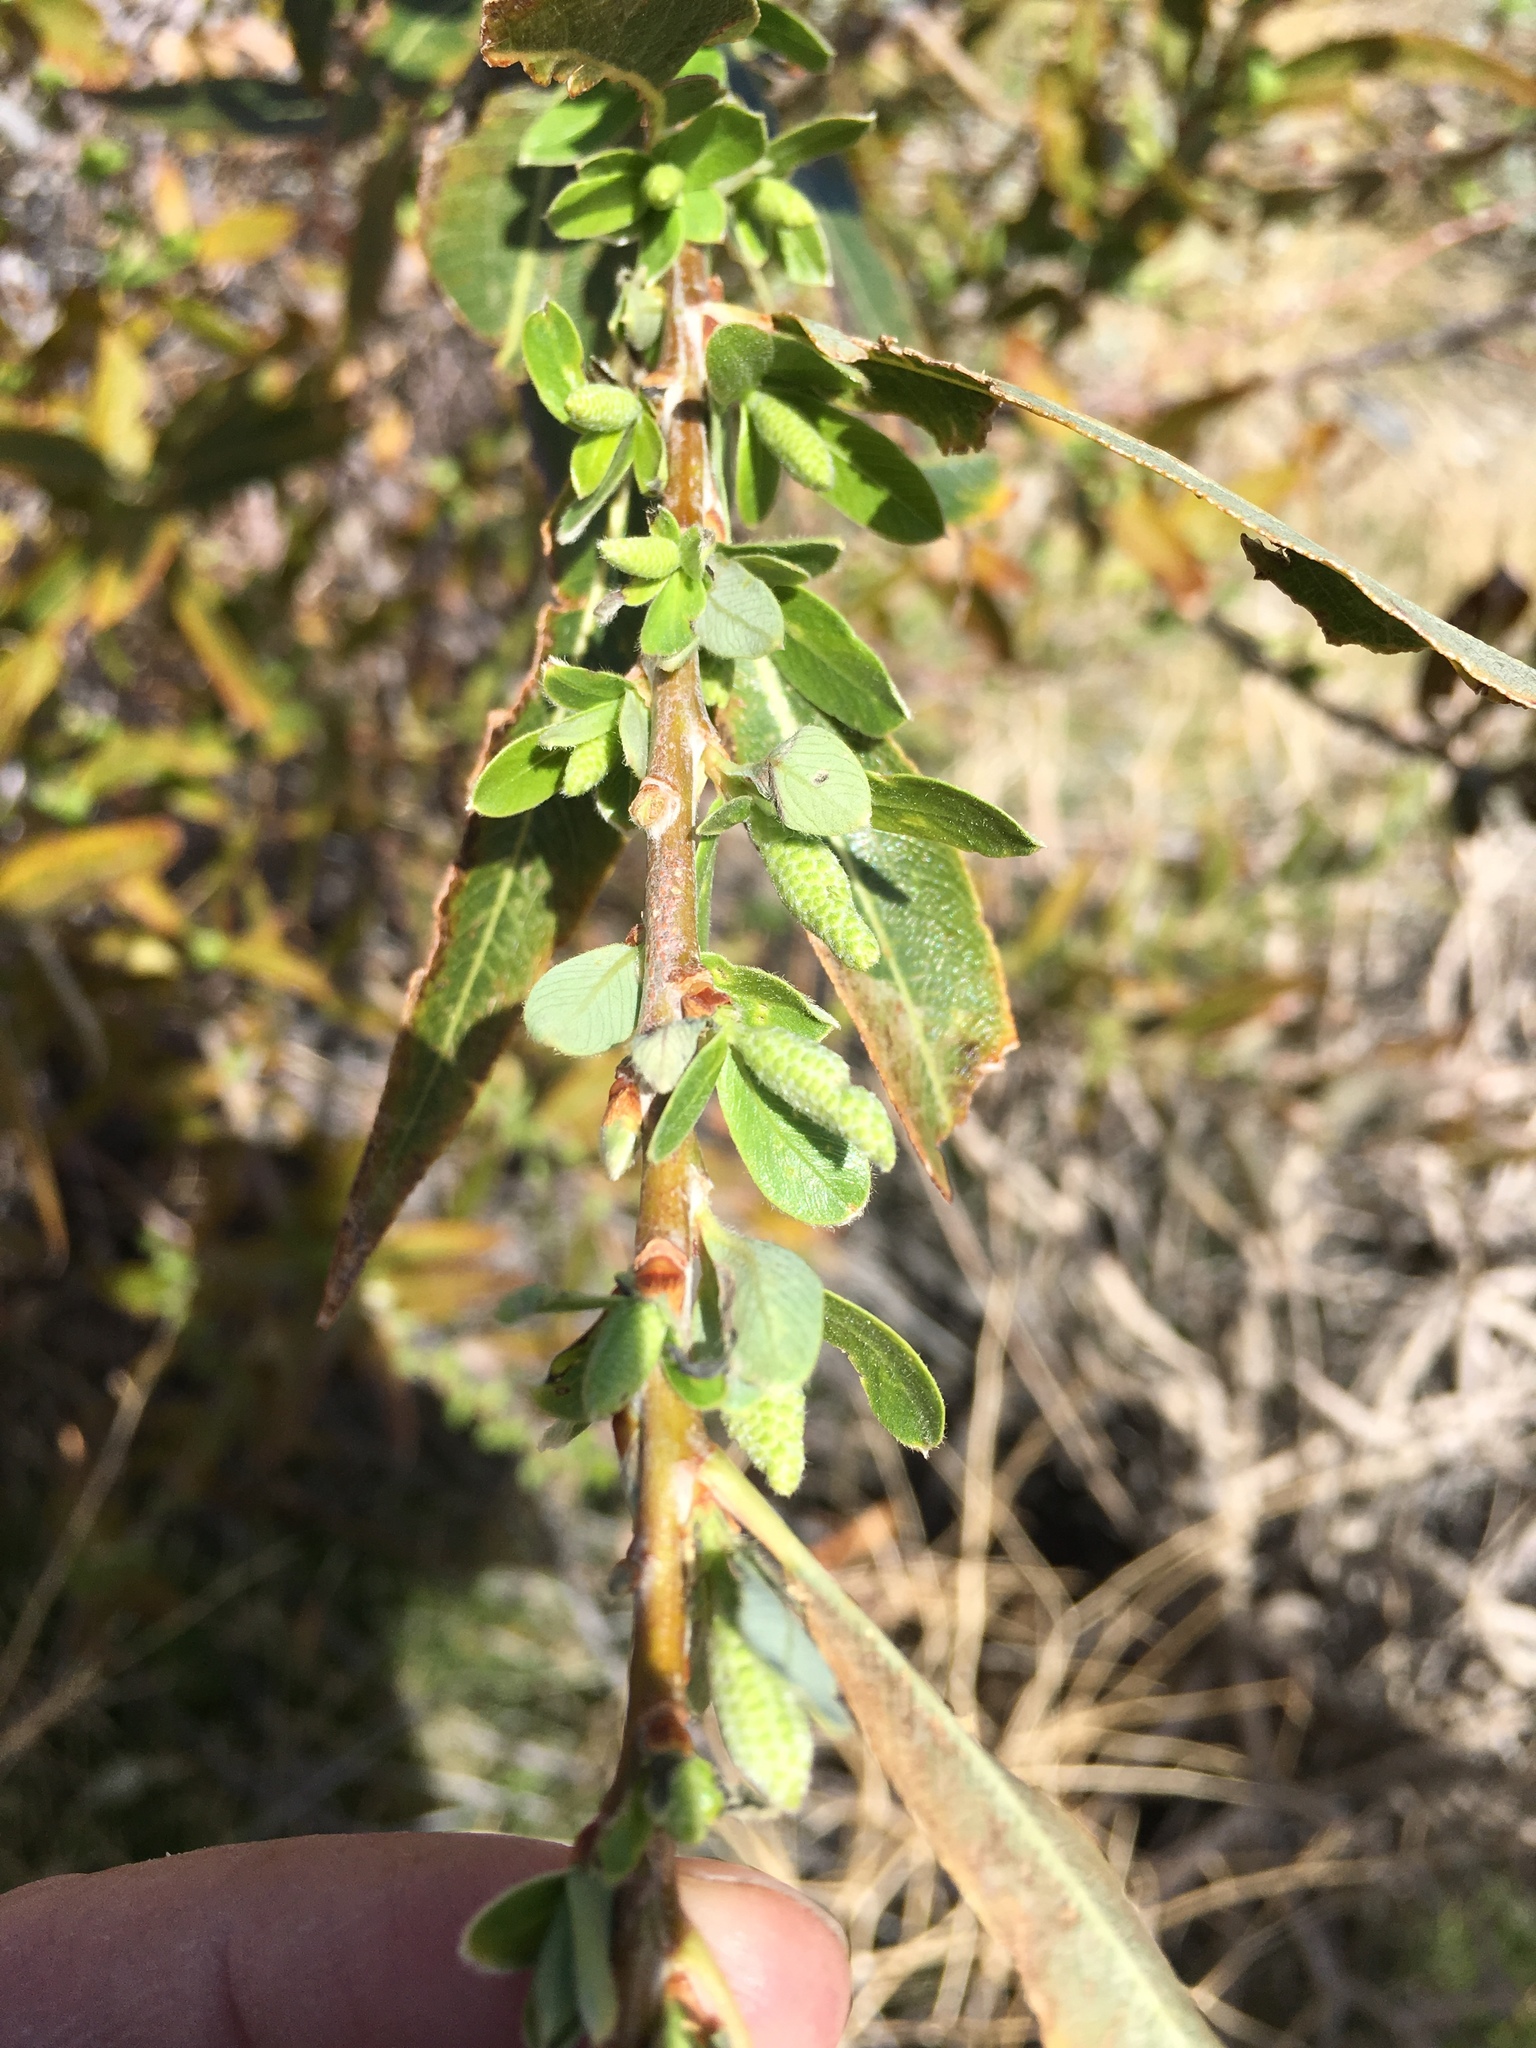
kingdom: Plantae
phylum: Tracheophyta
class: Magnoliopsida
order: Malpighiales
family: Salicaceae
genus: Salix
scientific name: Salix lasiolepis
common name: Arroyo willow
